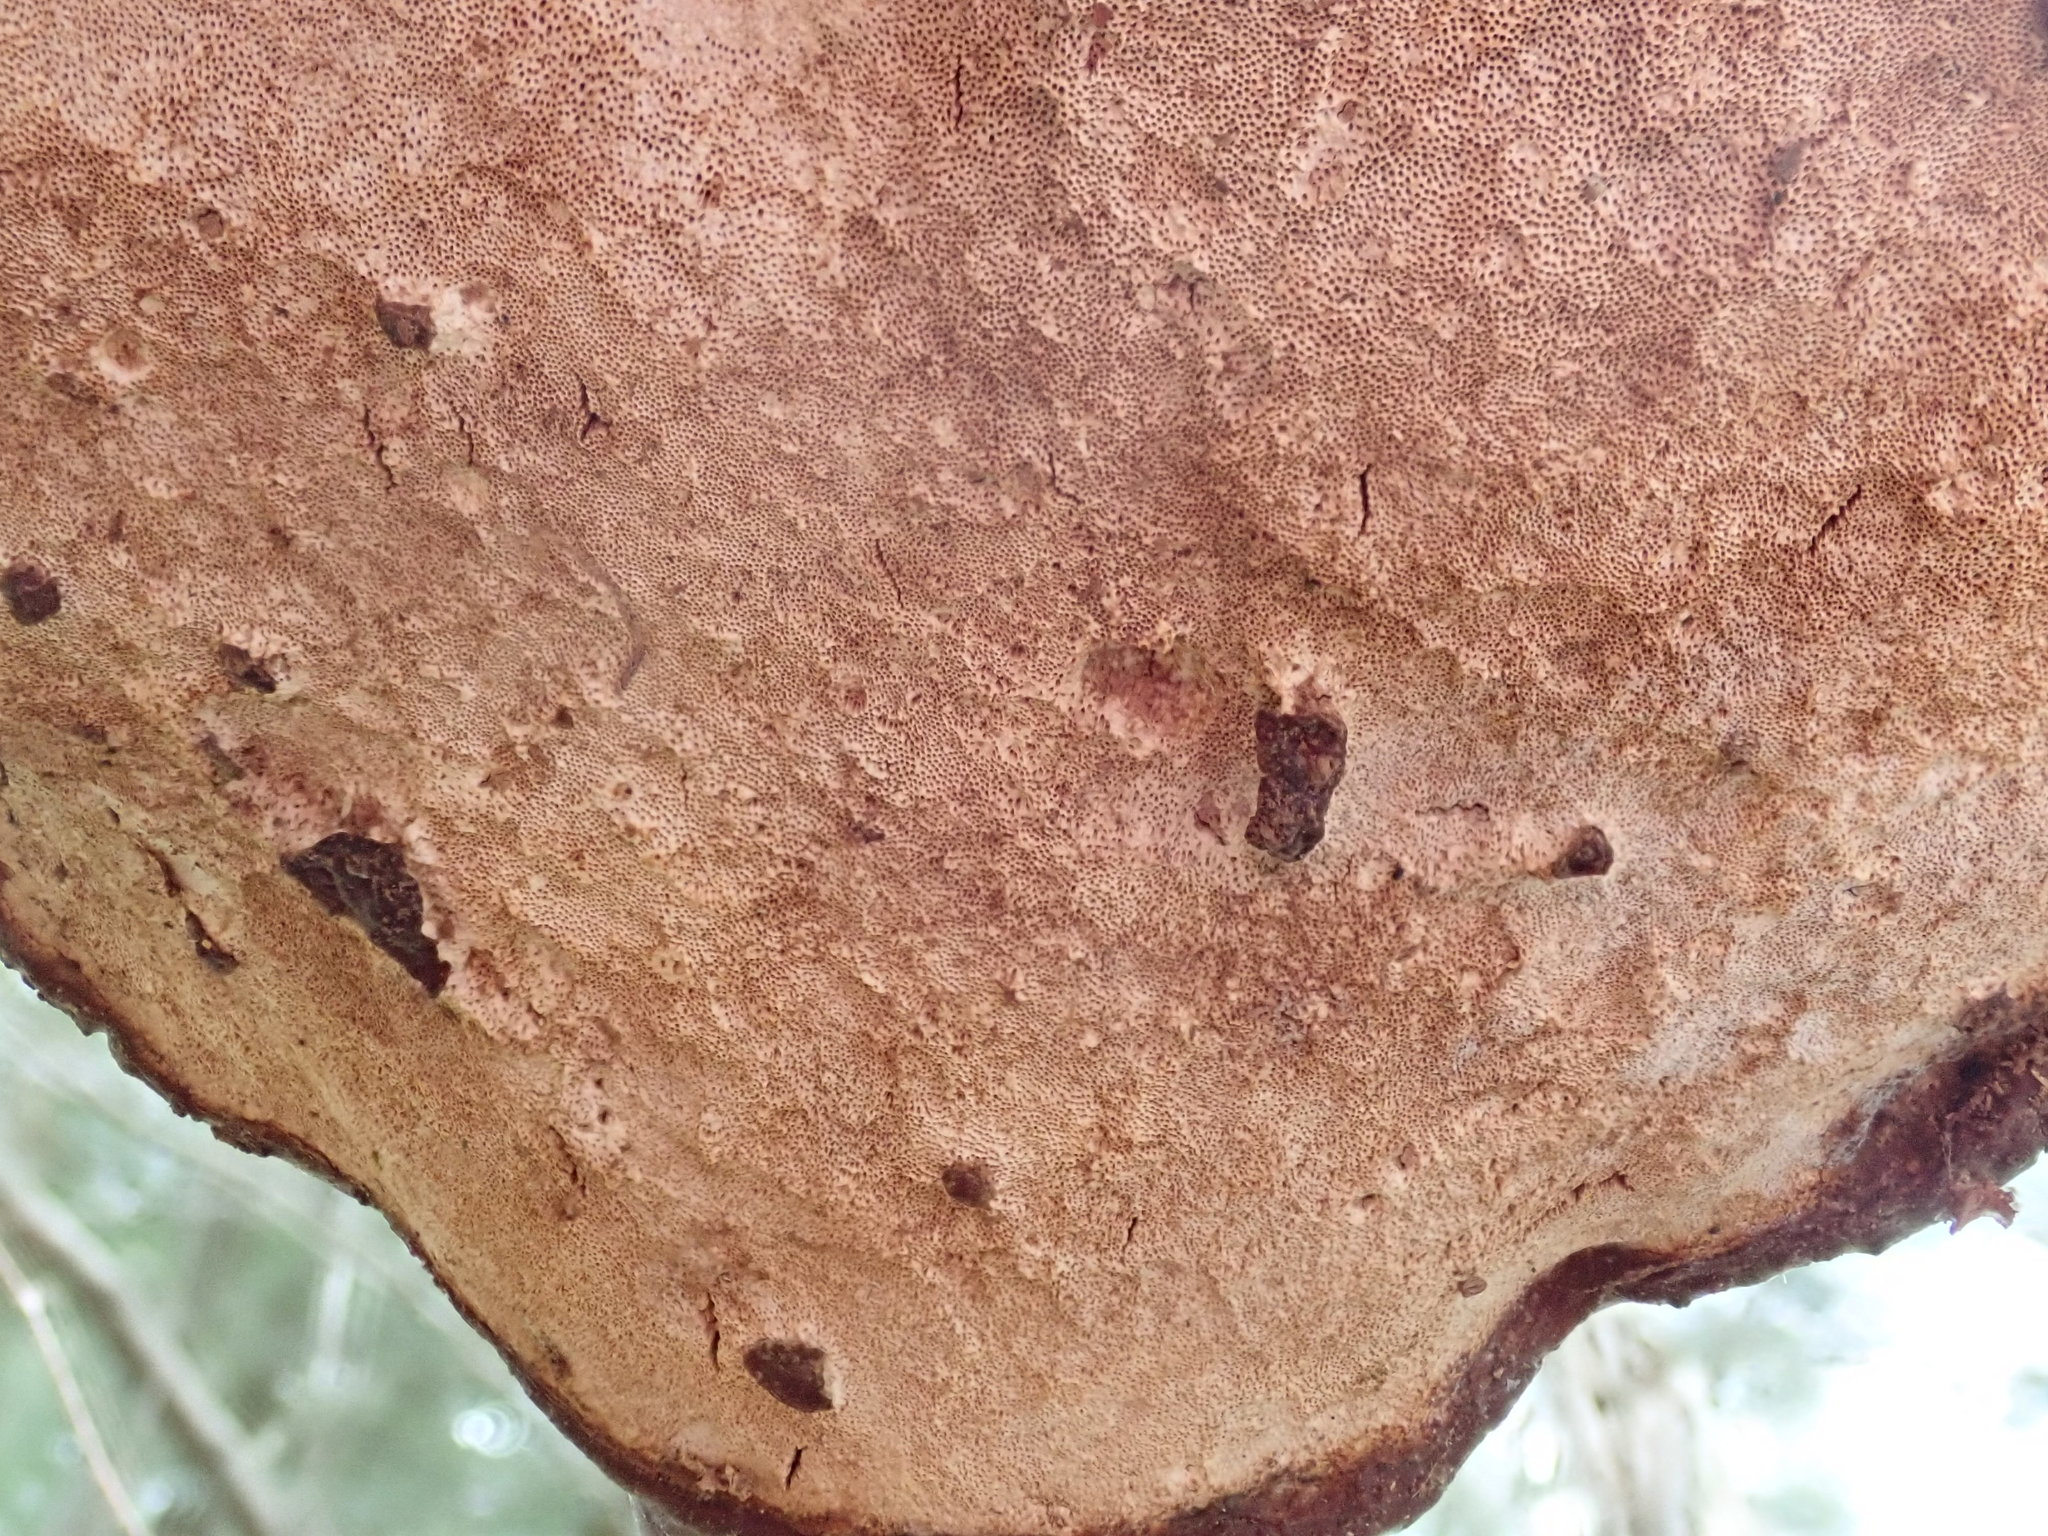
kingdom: Fungi
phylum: Basidiomycota
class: Agaricomycetes
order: Polyporales
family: Polyporaceae
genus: Ganoderma
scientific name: Ganoderma tsugae
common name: Hemlock varnish shelf
